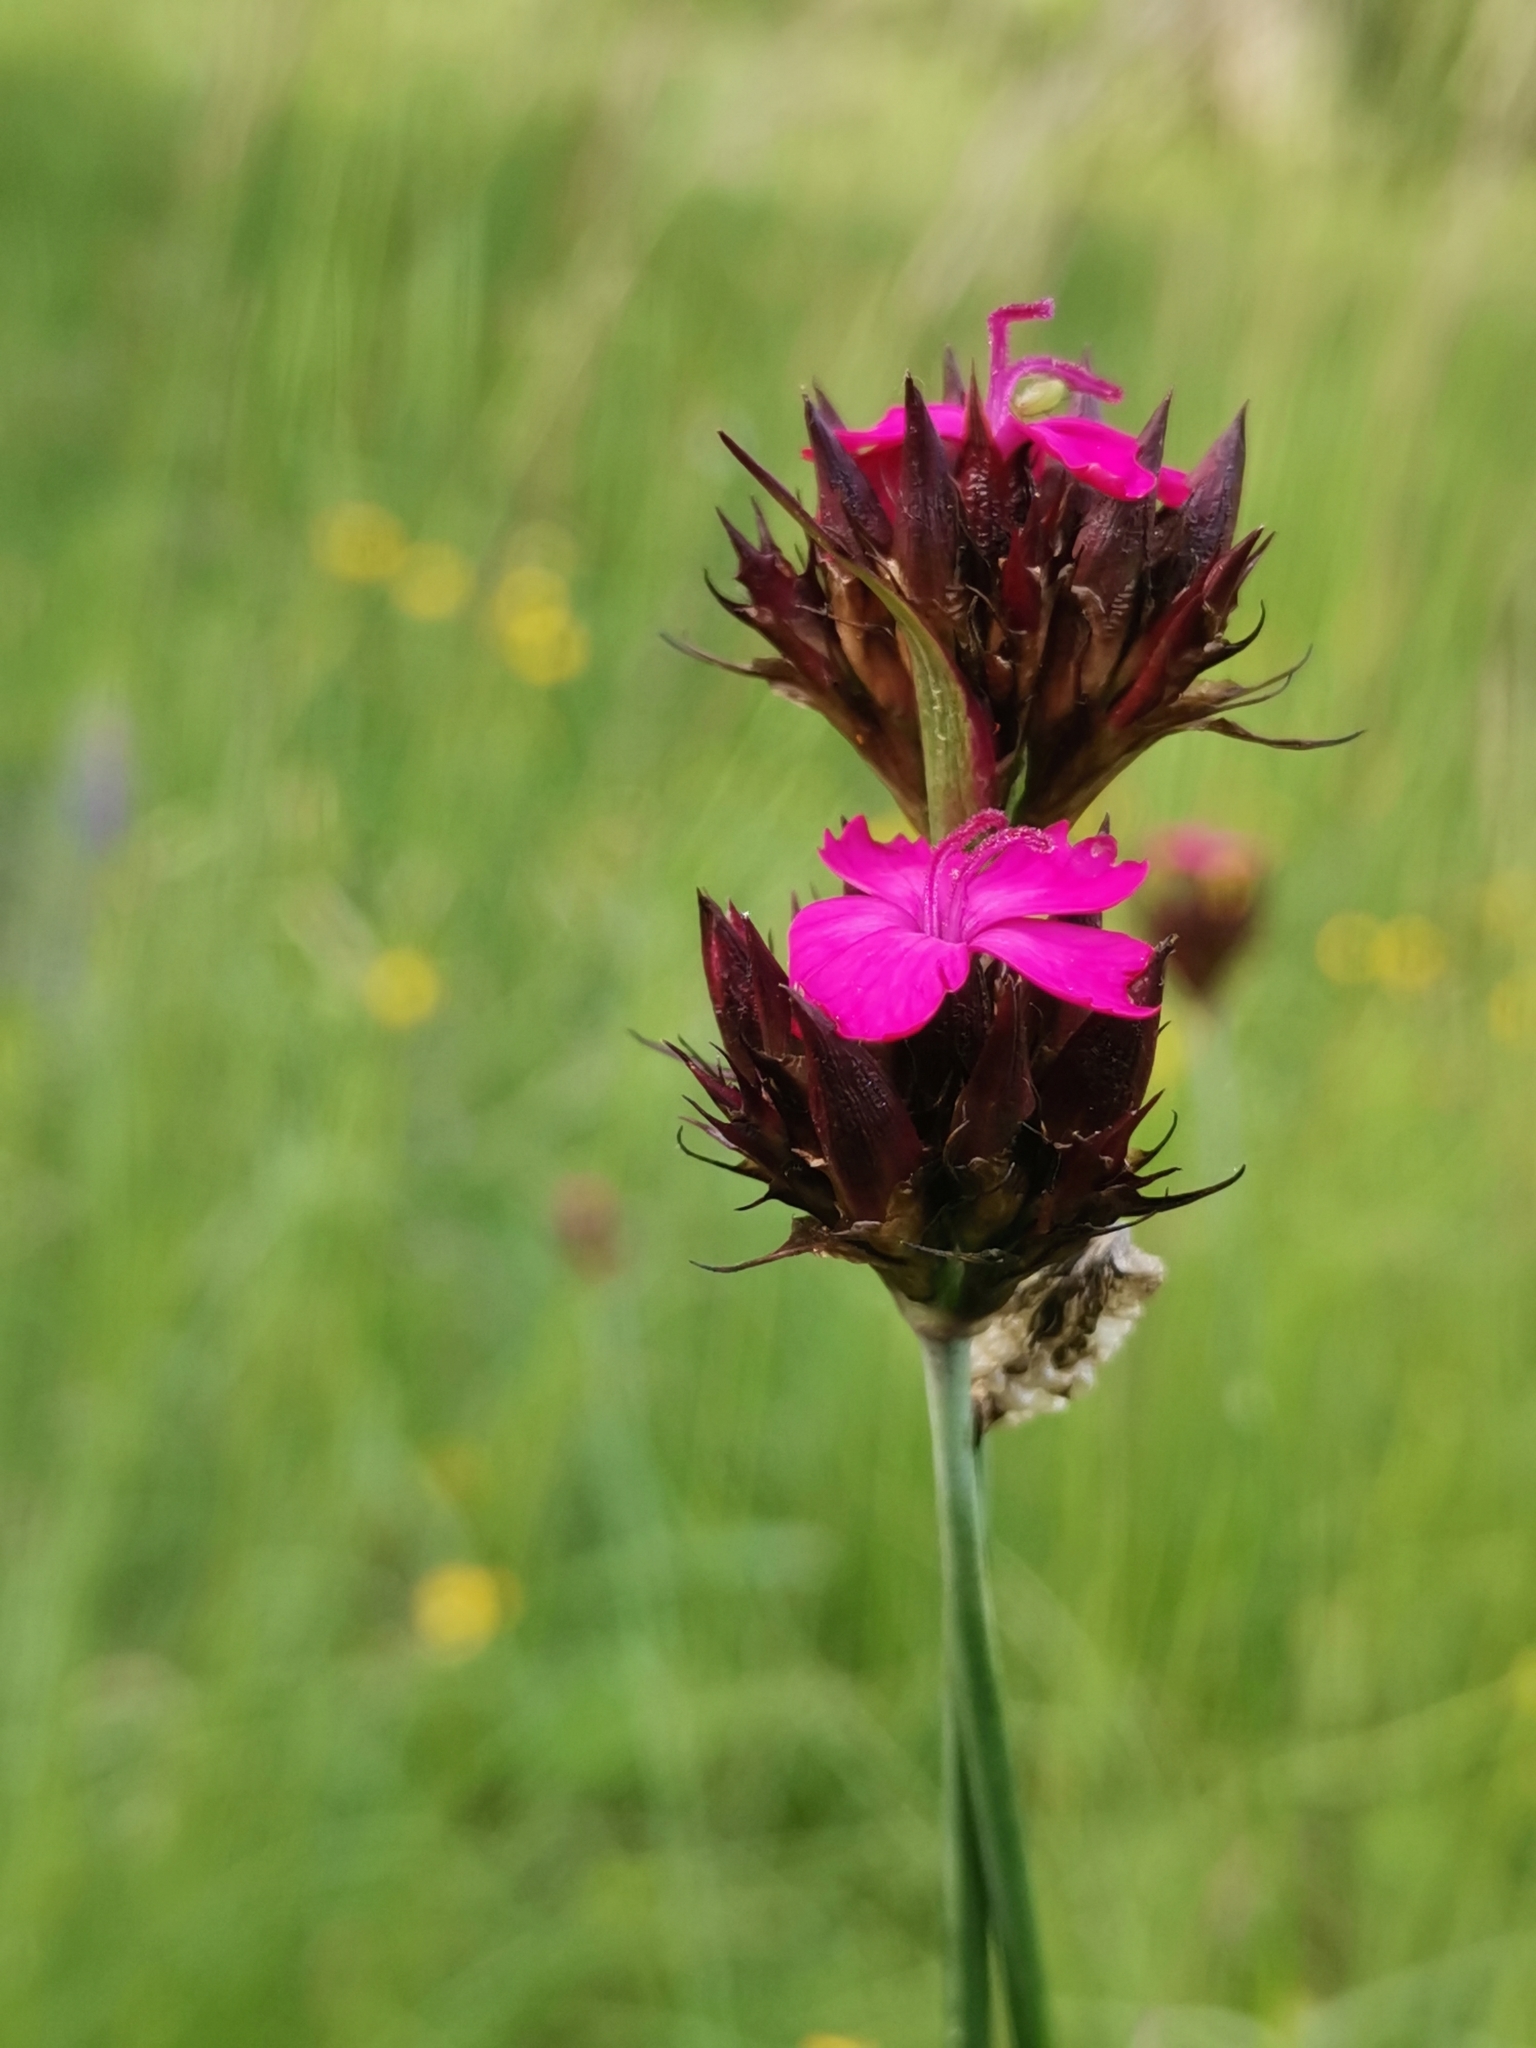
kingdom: Plantae
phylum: Tracheophyta
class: Magnoliopsida
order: Caryophyllales
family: Caryophyllaceae
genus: Dianthus
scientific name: Dianthus carthusianorum
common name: Carthusian pink
